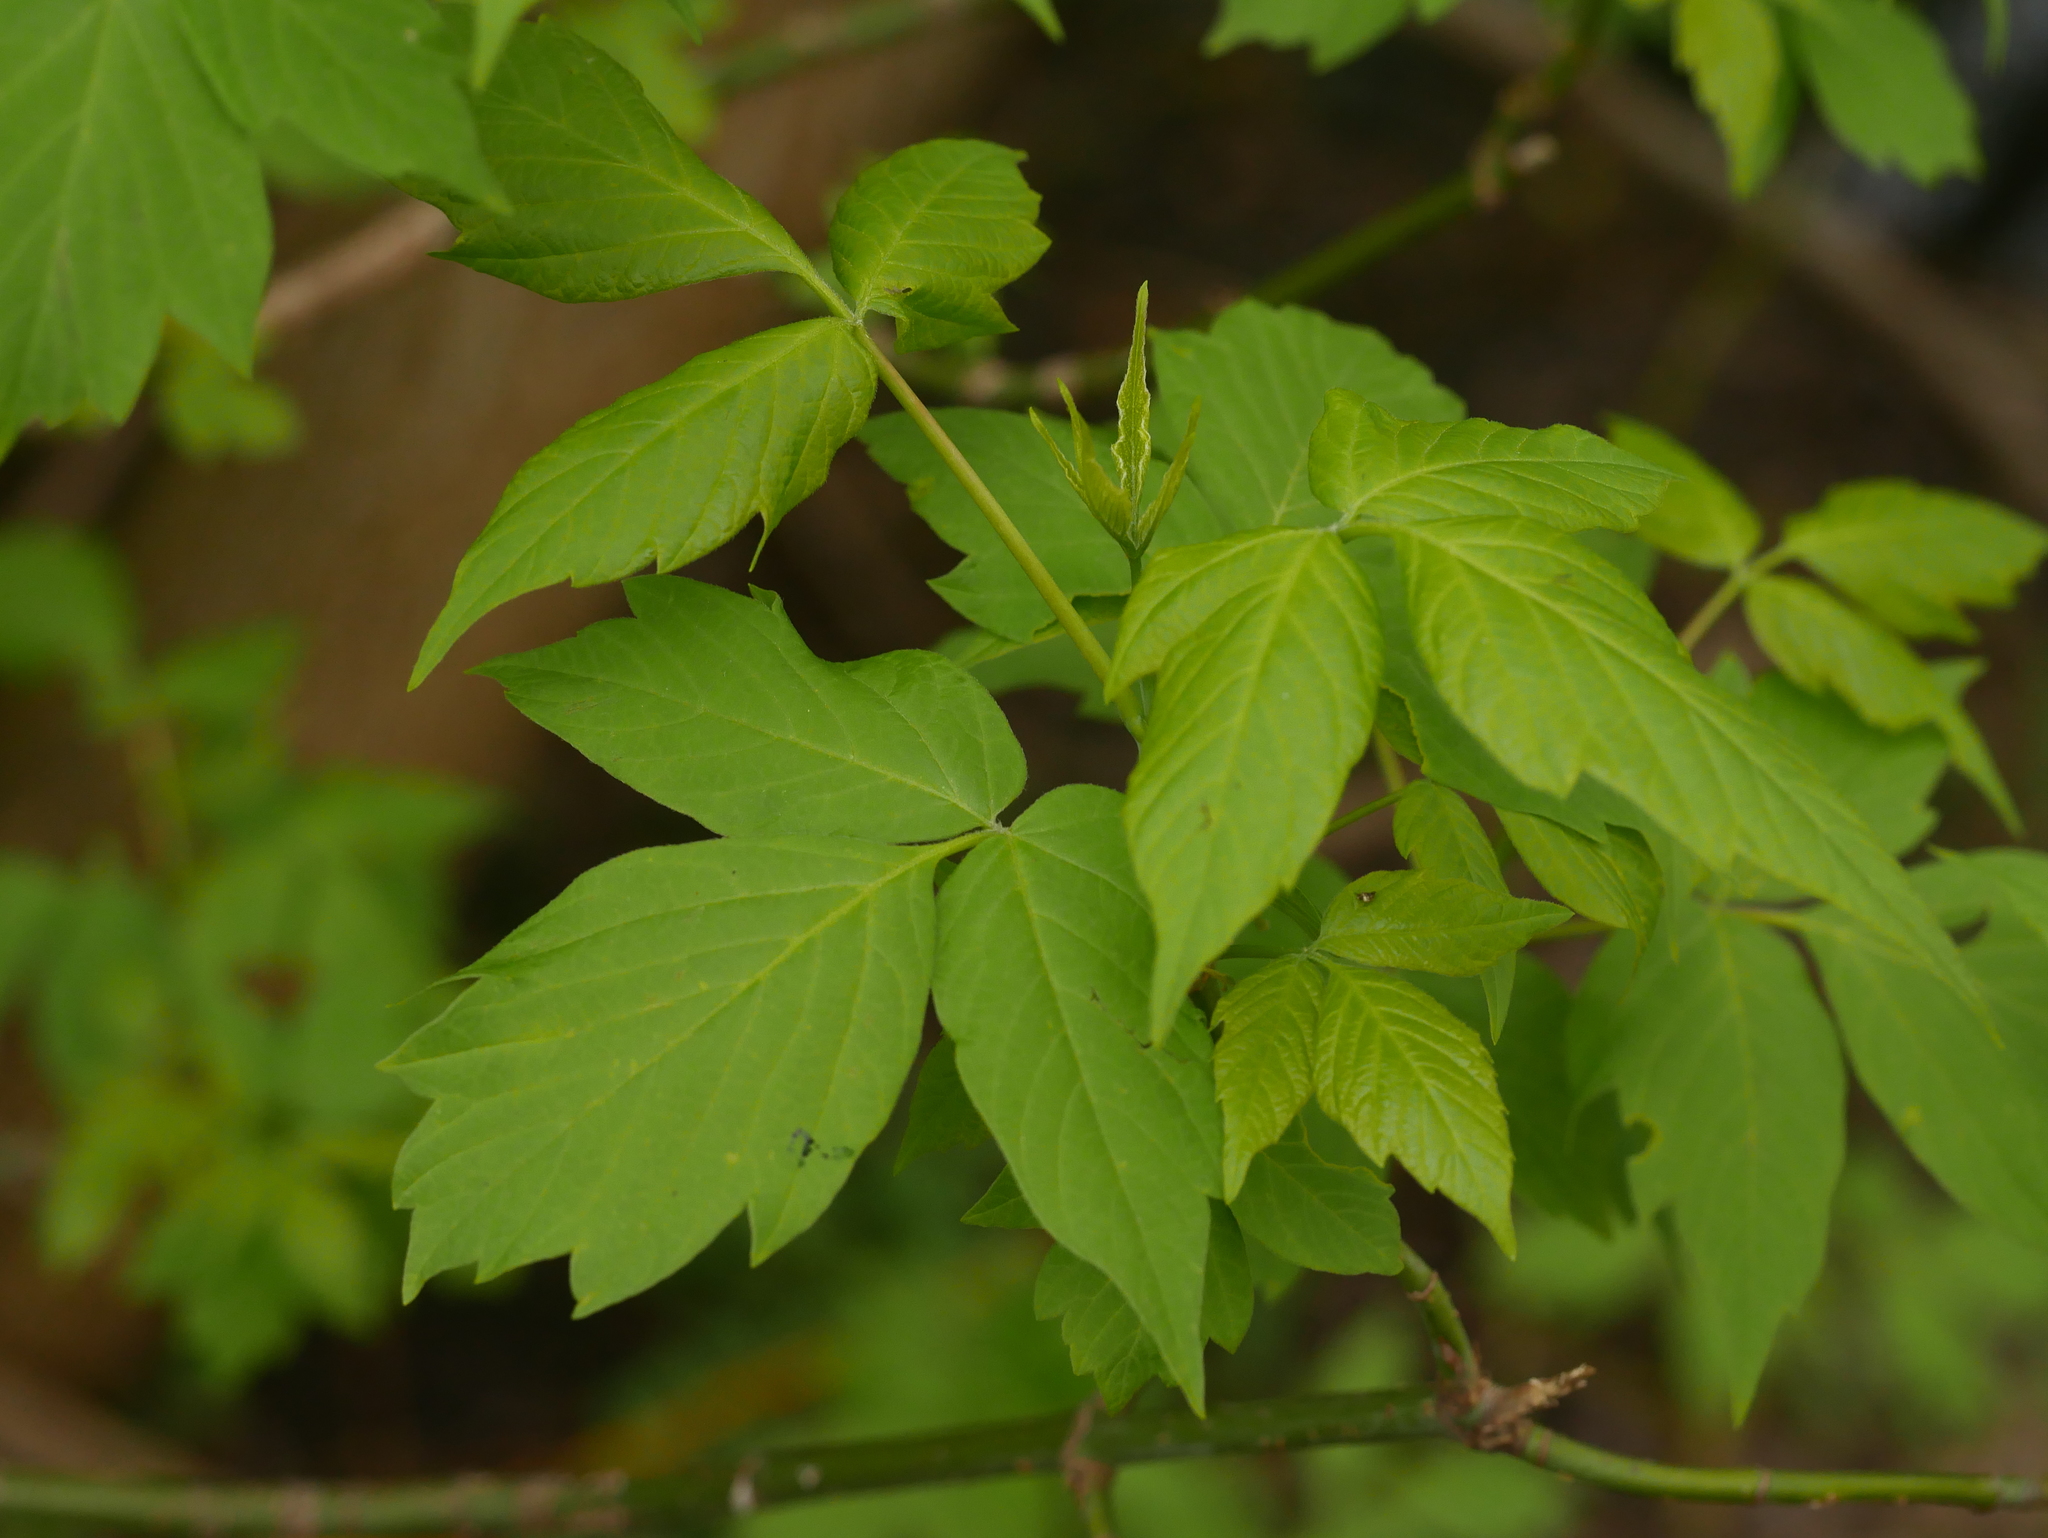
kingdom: Plantae
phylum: Tracheophyta
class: Magnoliopsida
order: Sapindales
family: Sapindaceae
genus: Acer
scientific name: Acer negundo
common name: Ashleaf maple
